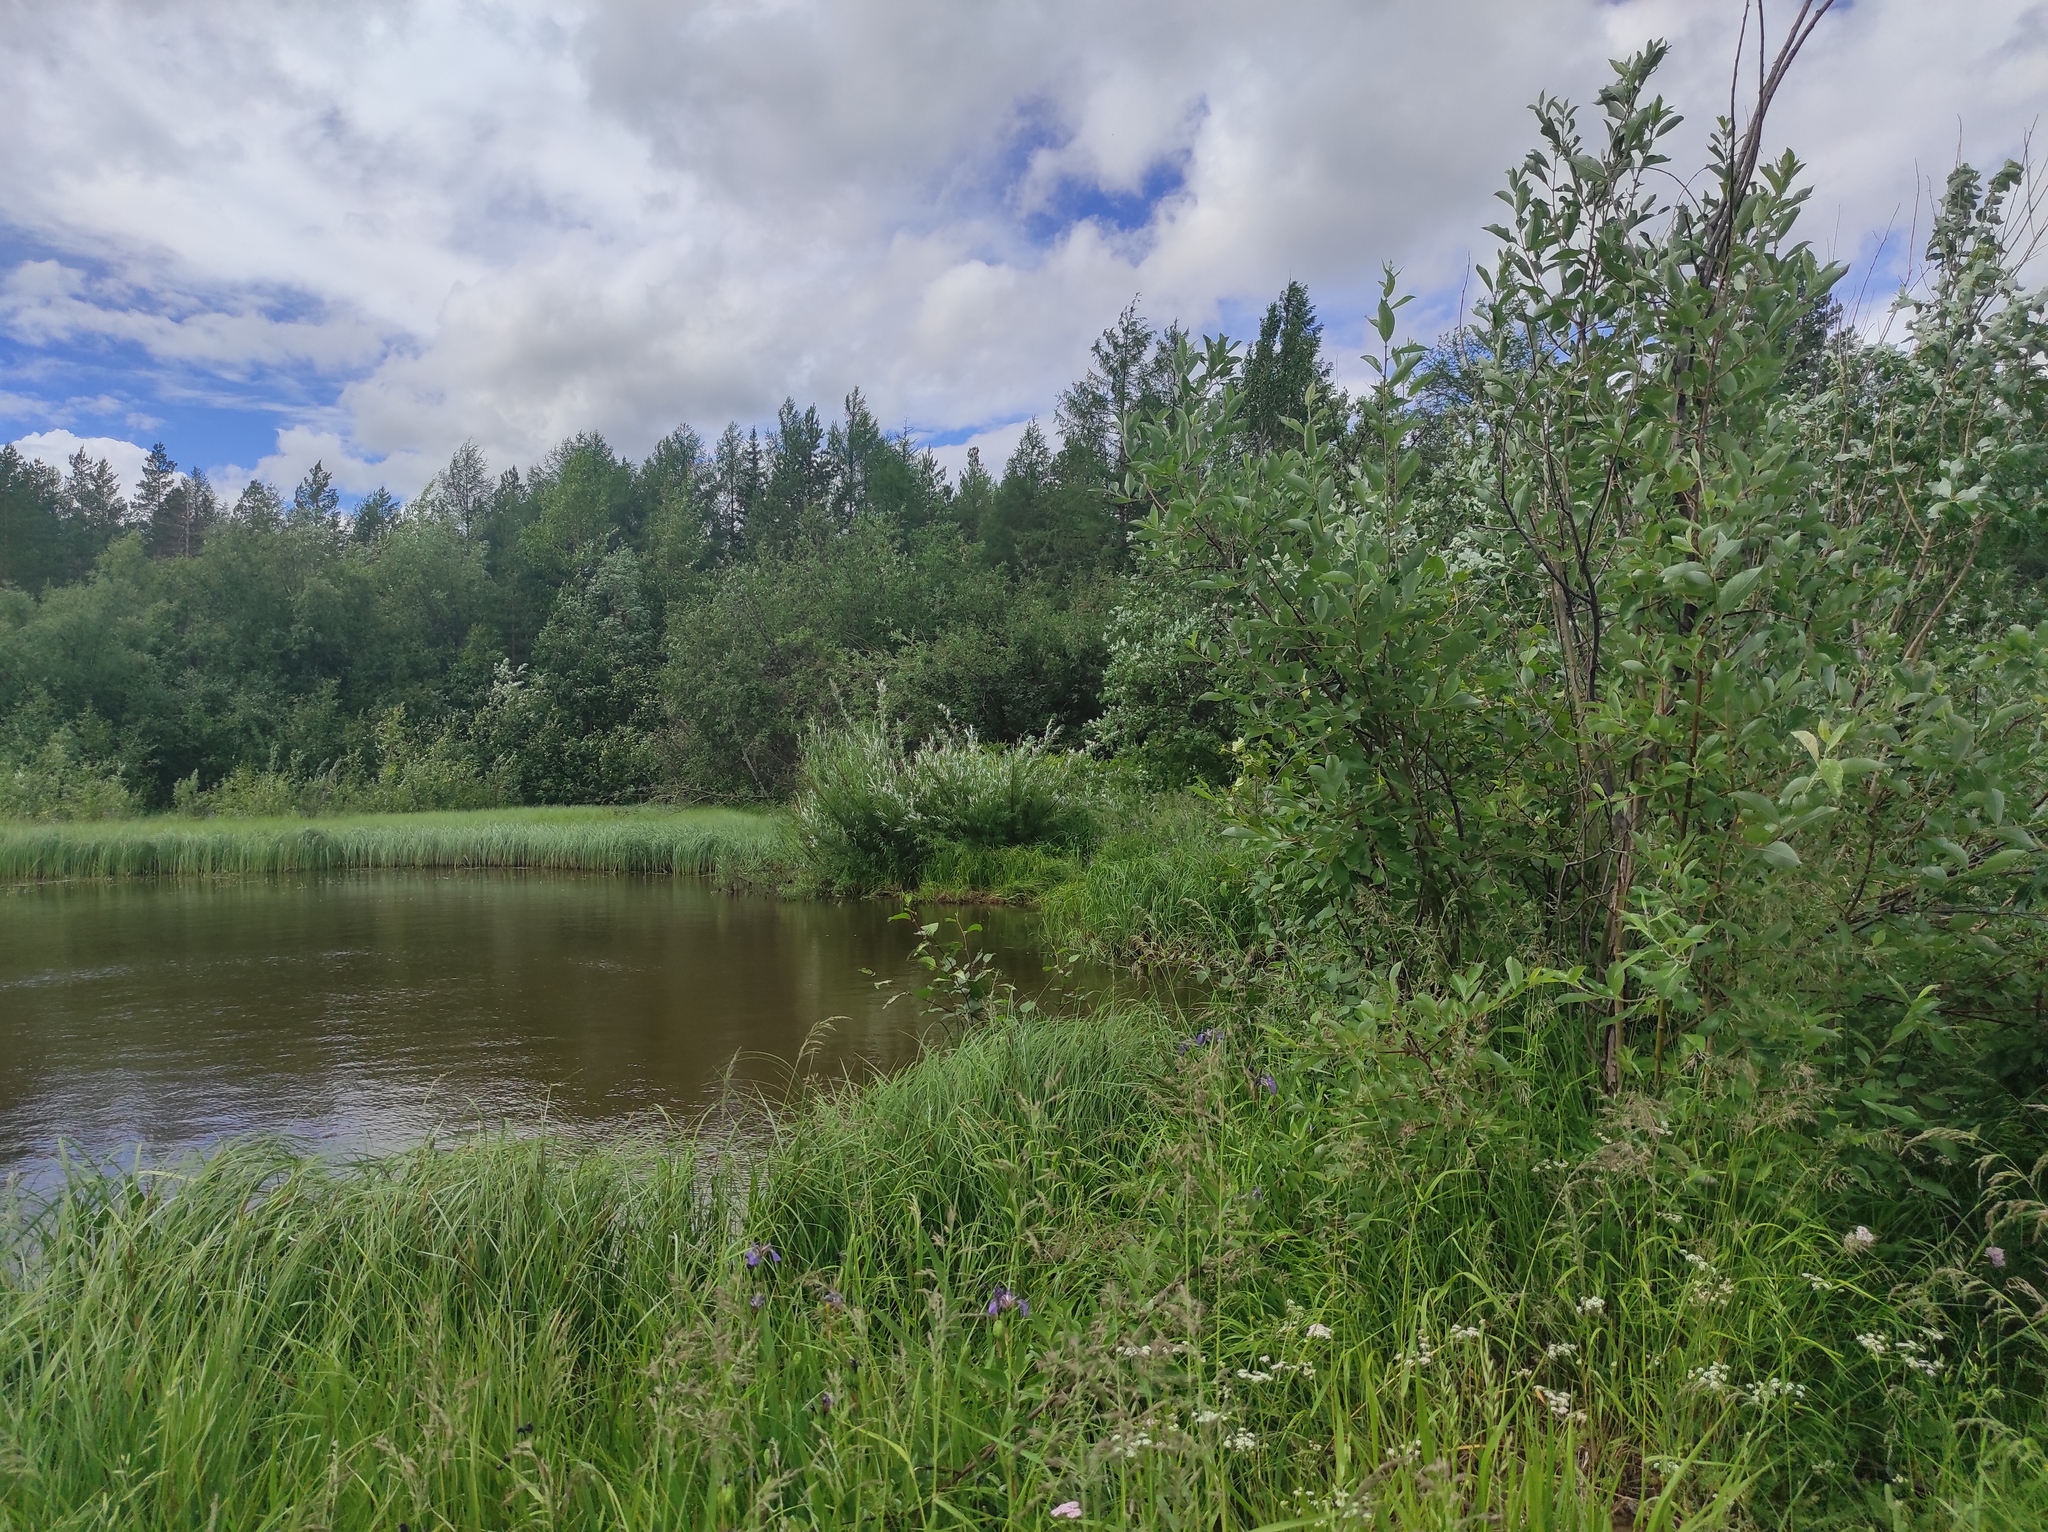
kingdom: Plantae
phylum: Tracheophyta
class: Liliopsida
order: Asparagales
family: Iridaceae
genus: Iris
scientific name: Iris setosa
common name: Arctic blue flag
